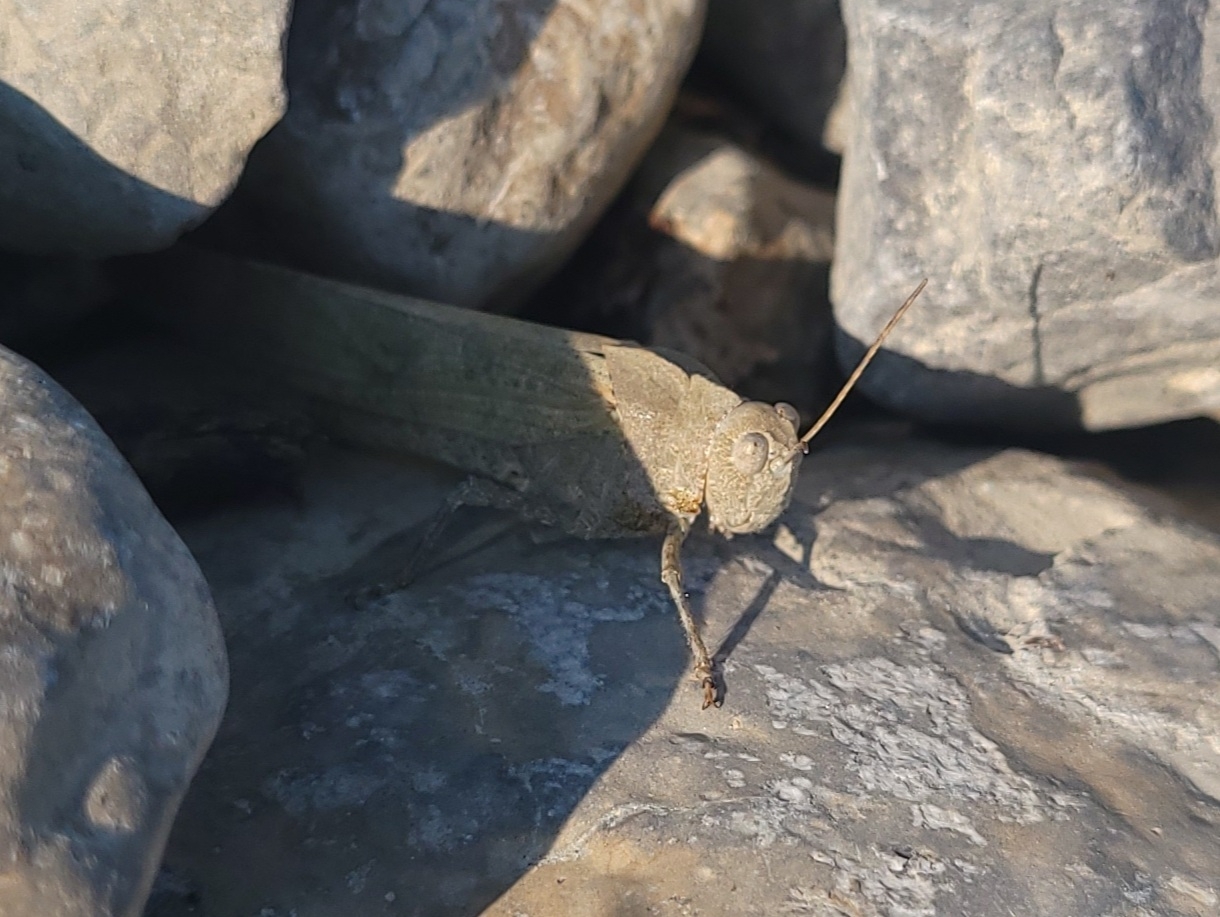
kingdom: Animalia
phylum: Arthropoda
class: Insecta
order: Orthoptera
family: Acrididae
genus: Dissosteira
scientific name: Dissosteira carolina
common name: Carolina grasshopper
